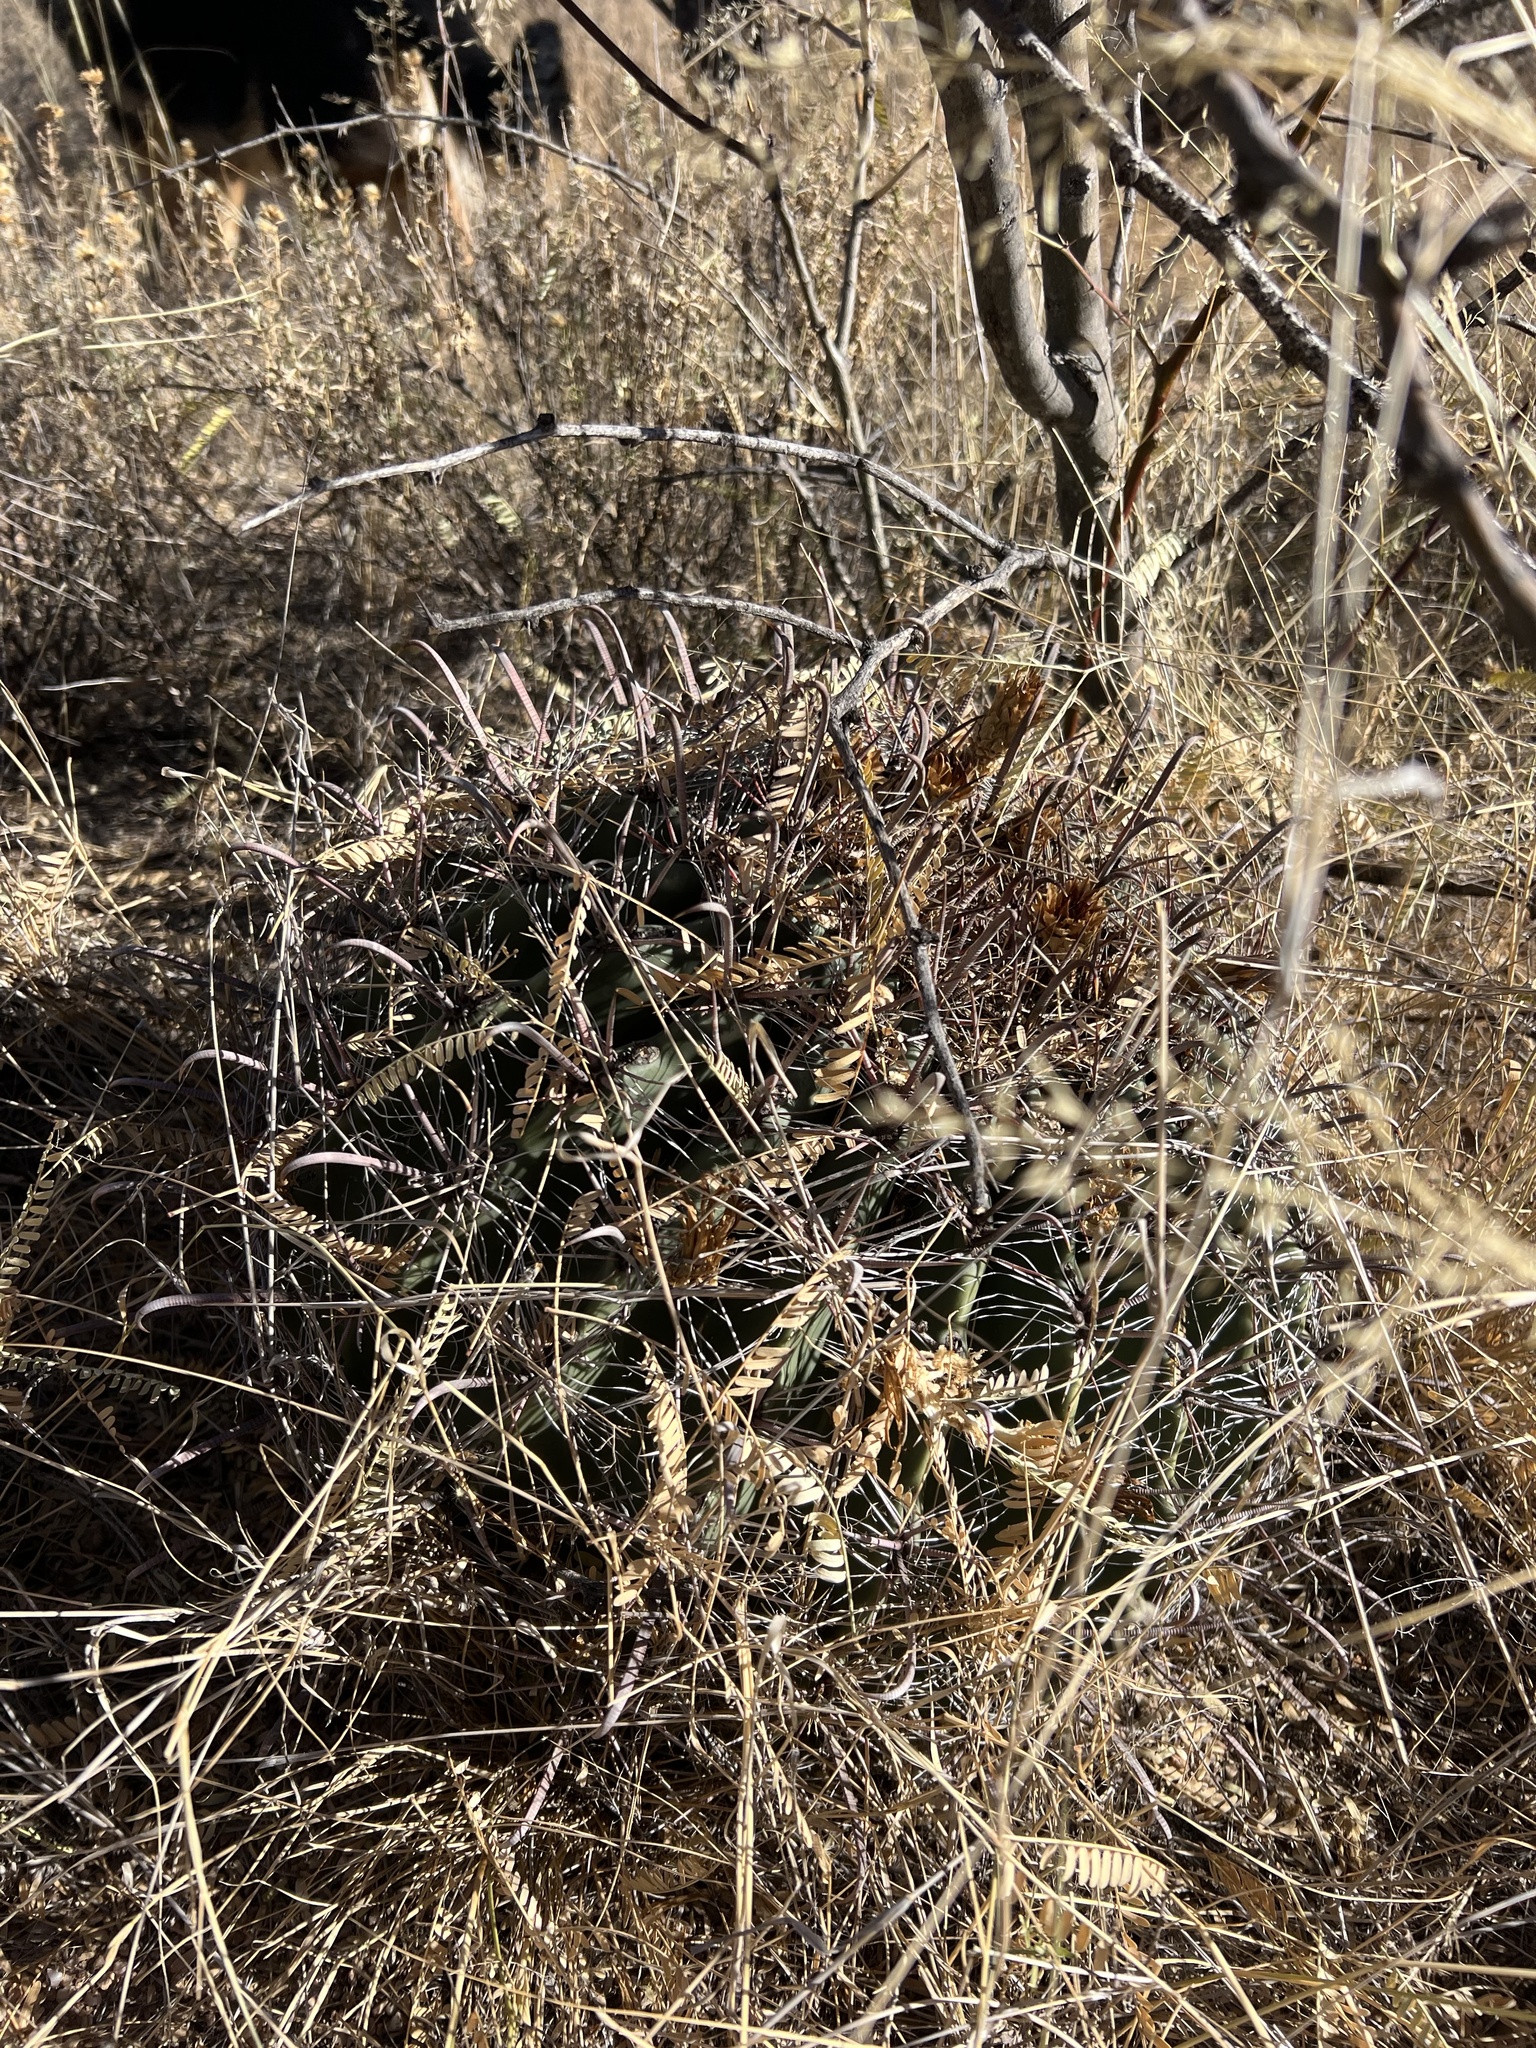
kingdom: Plantae
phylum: Tracheophyta
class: Magnoliopsida
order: Caryophyllales
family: Cactaceae
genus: Ferocactus
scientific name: Ferocactus wislizeni
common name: Candy barrel cactus
